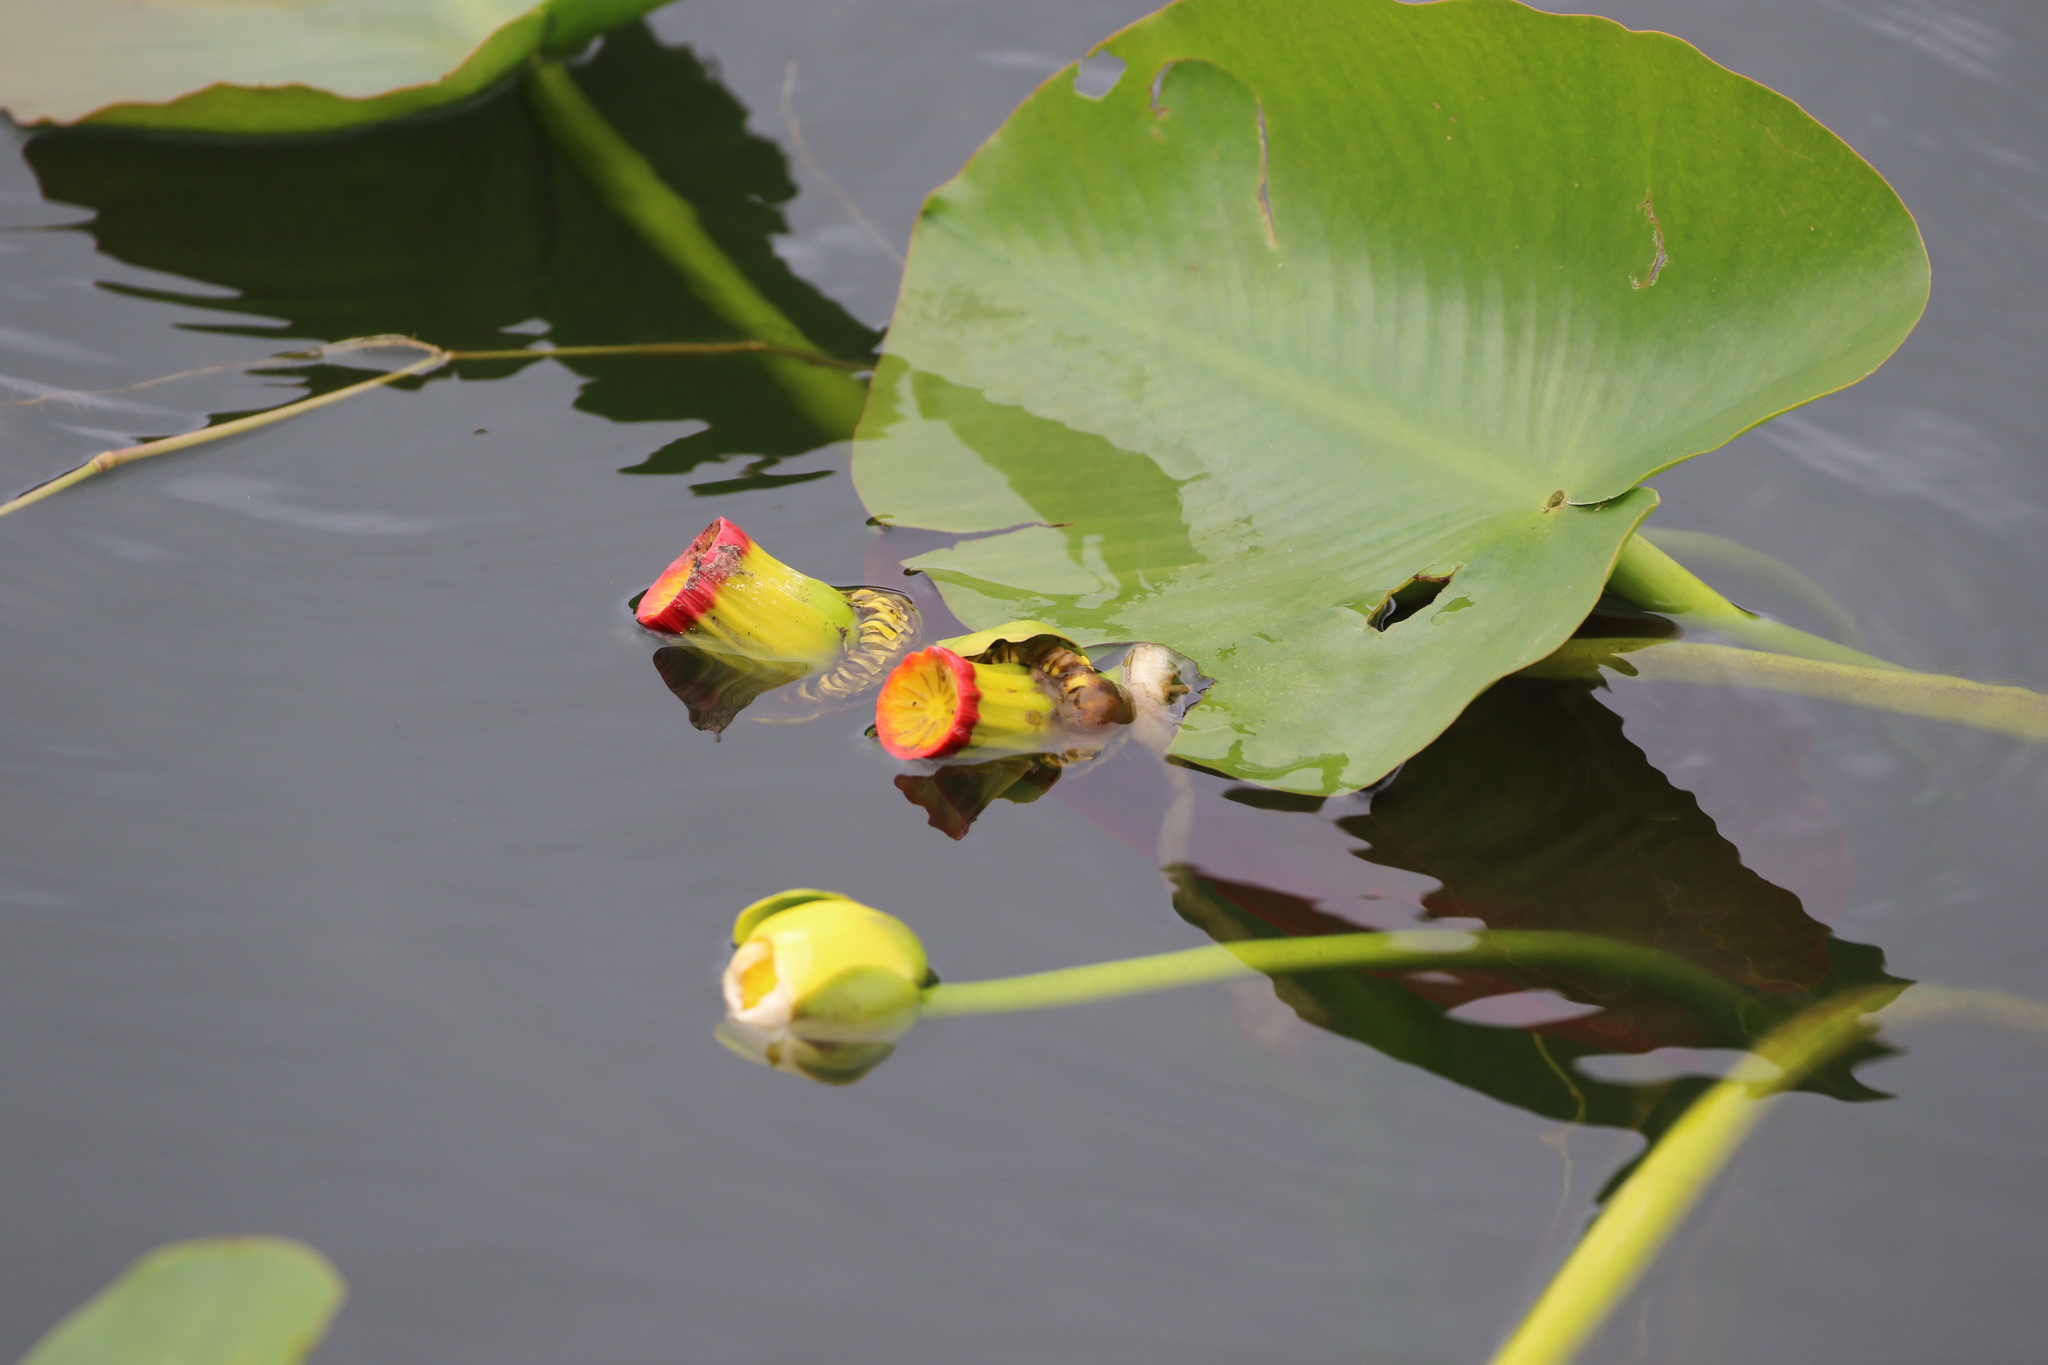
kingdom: Plantae
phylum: Tracheophyta
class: Magnoliopsida
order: Nymphaeales
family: Nymphaeaceae
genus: Nuphar
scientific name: Nuphar advena
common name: Spatter-dock
